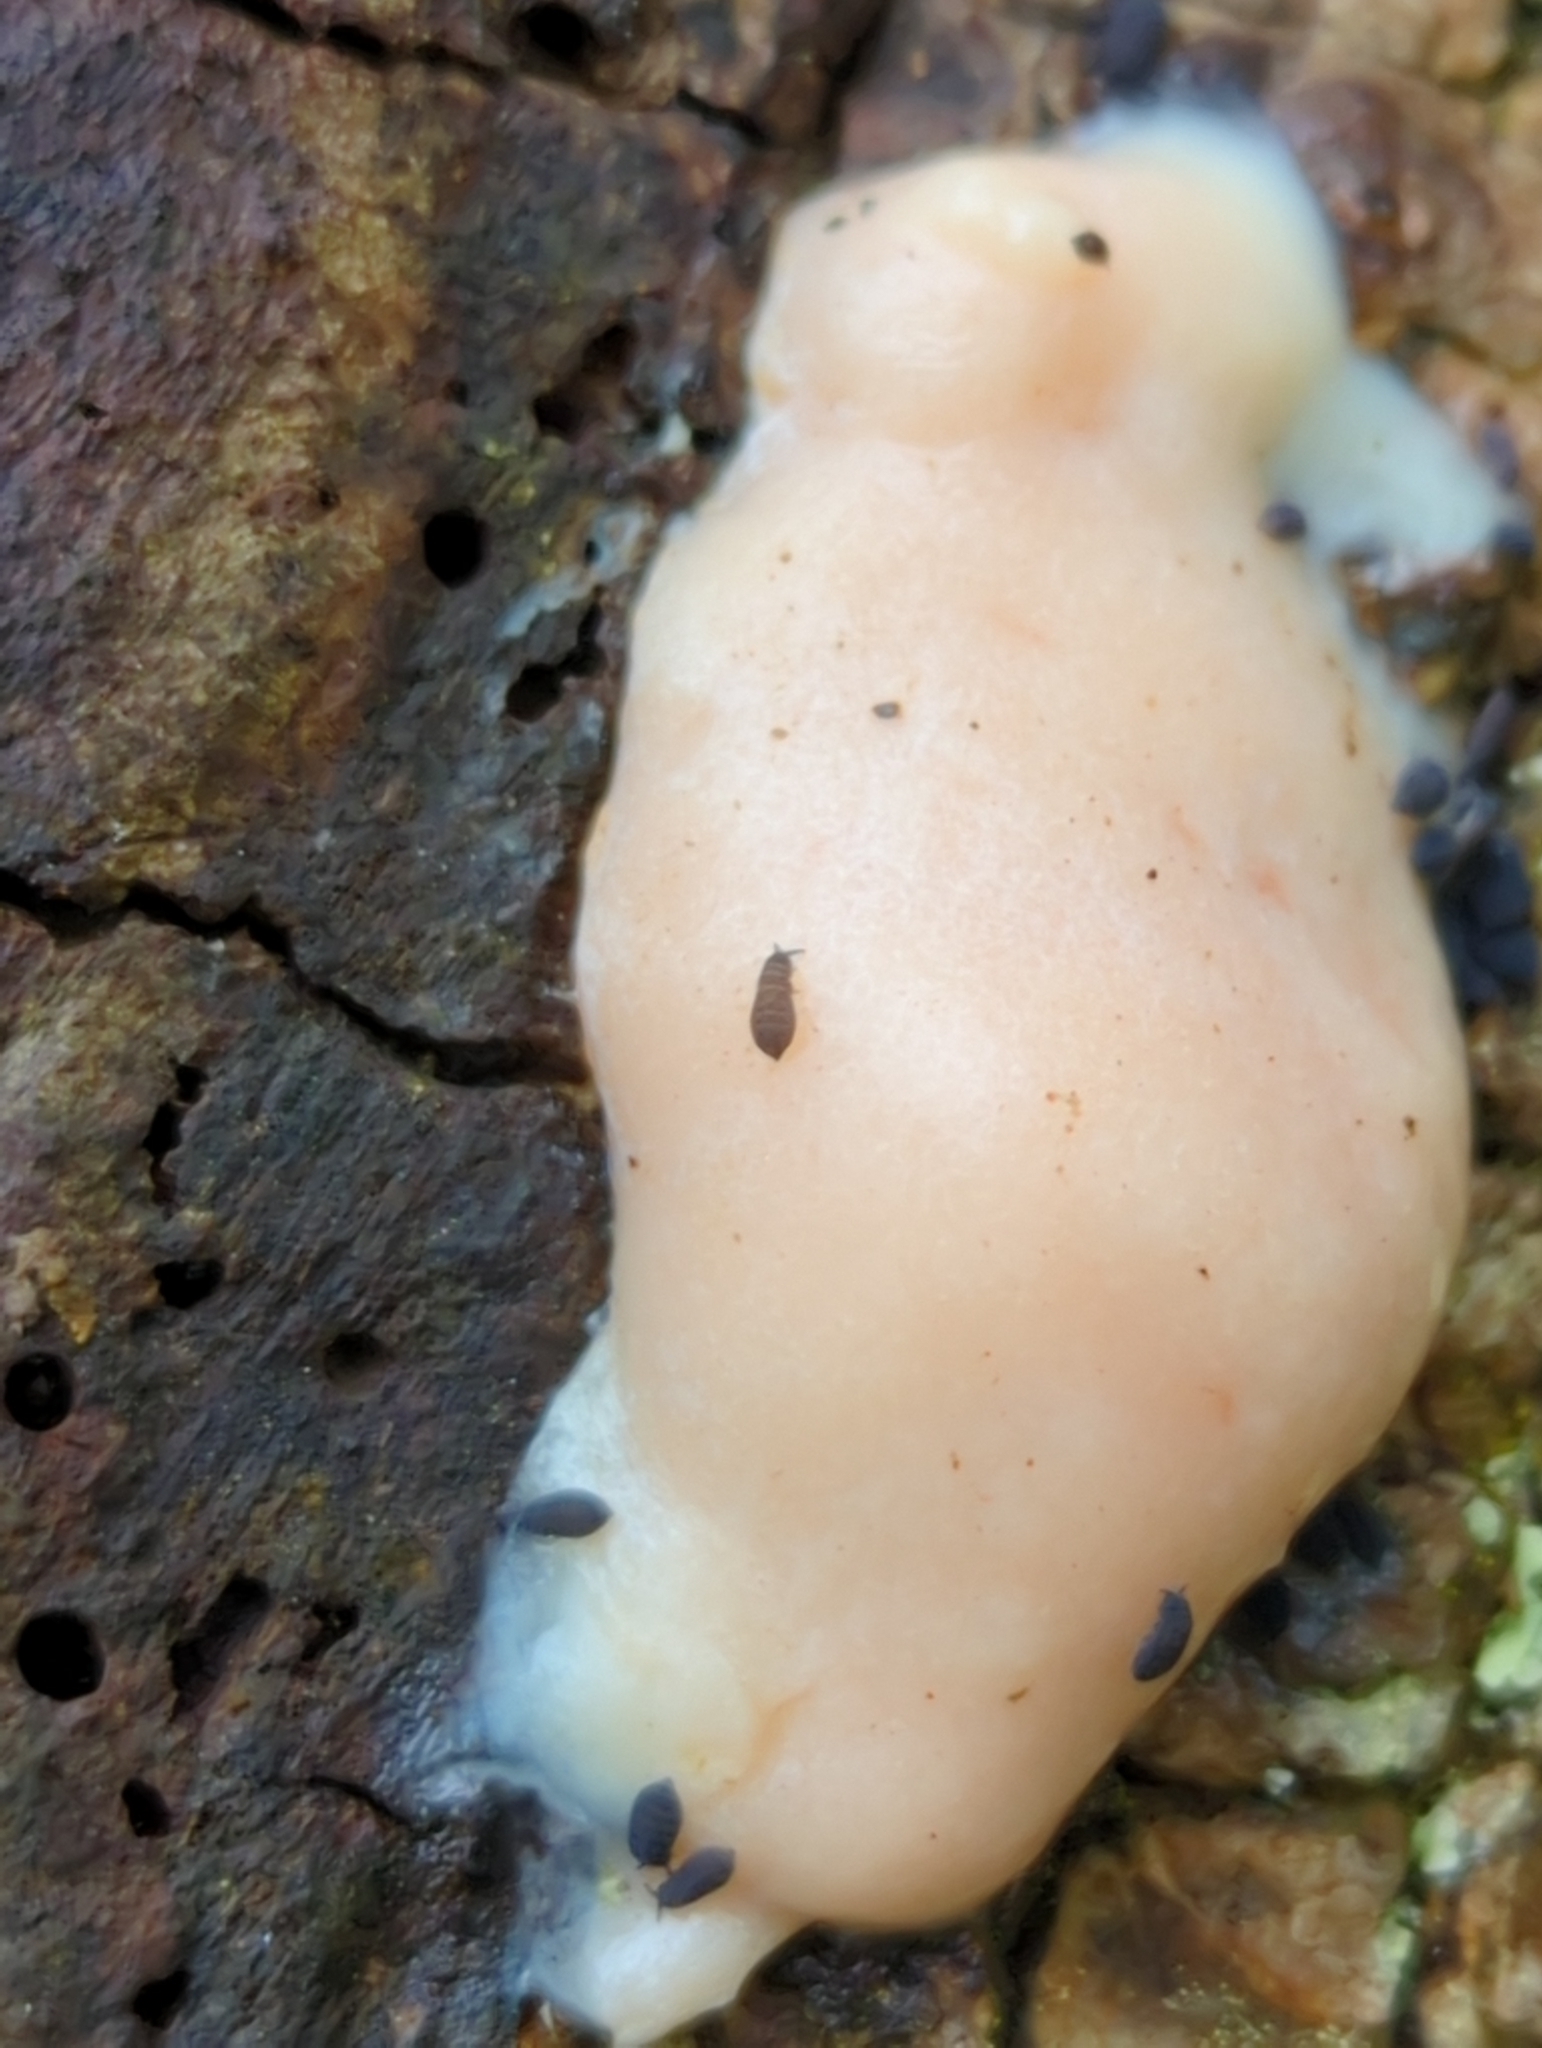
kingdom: Protozoa
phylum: Mycetozoa
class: Myxomycetes
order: Cribrariales
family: Tubiferaceae
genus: Reticularia
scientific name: Reticularia lycoperdon
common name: False puffball
